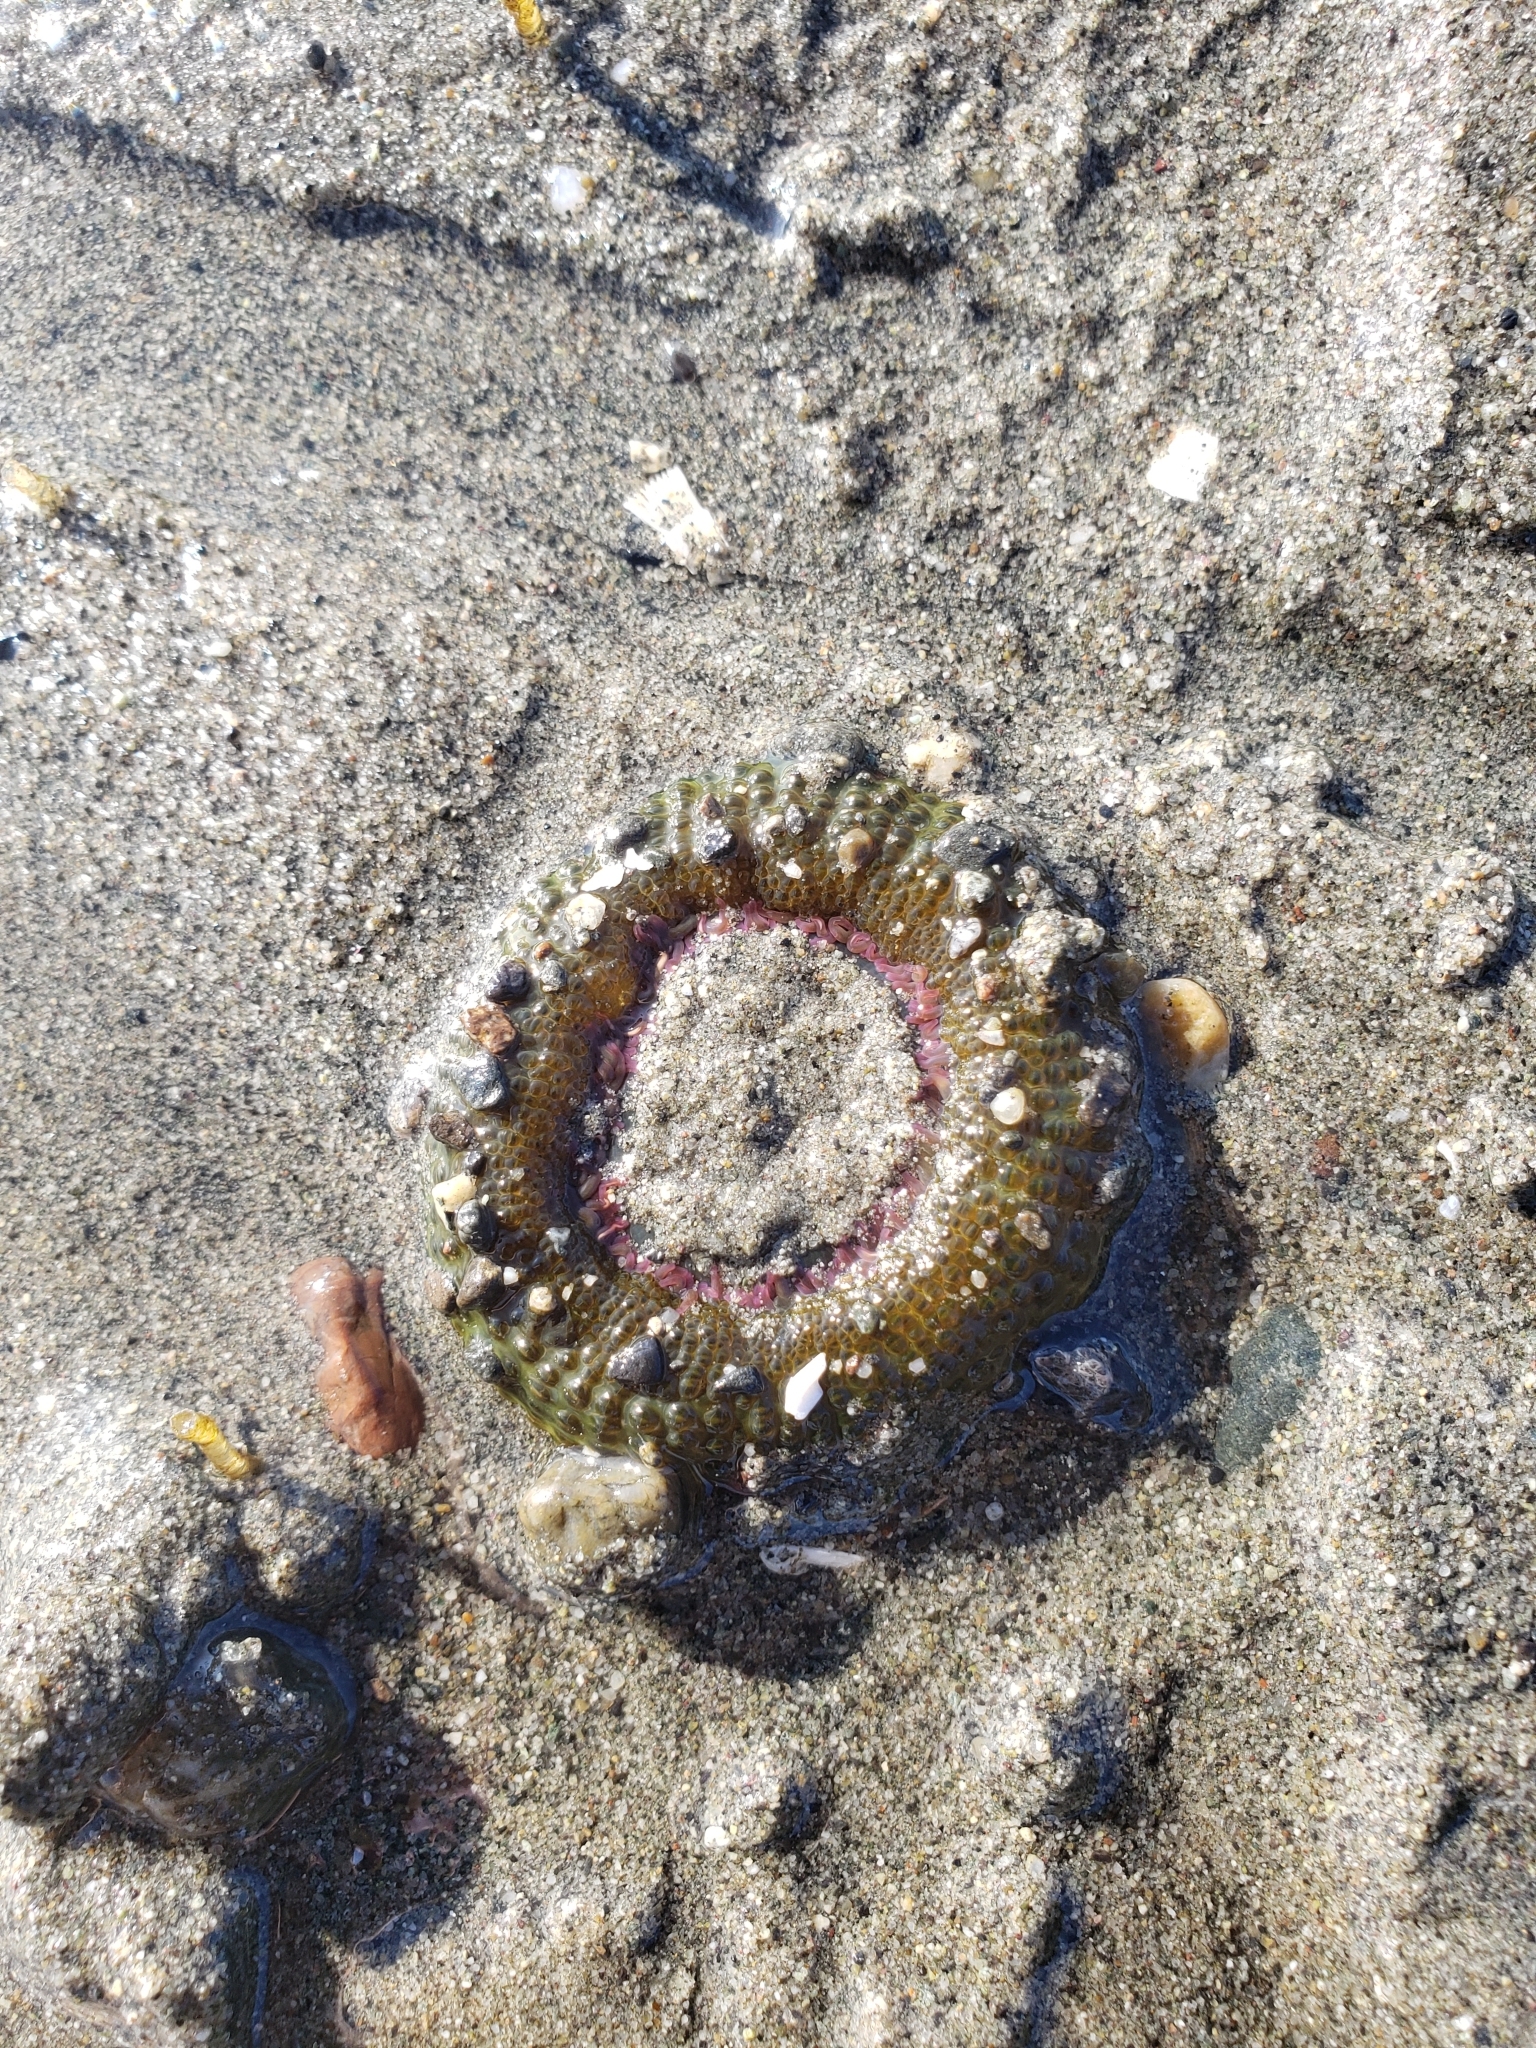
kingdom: Animalia
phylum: Cnidaria
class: Anthozoa
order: Actiniaria
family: Actiniidae
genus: Anthopleura
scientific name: Anthopleura elegantissima
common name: Clonal anemone
